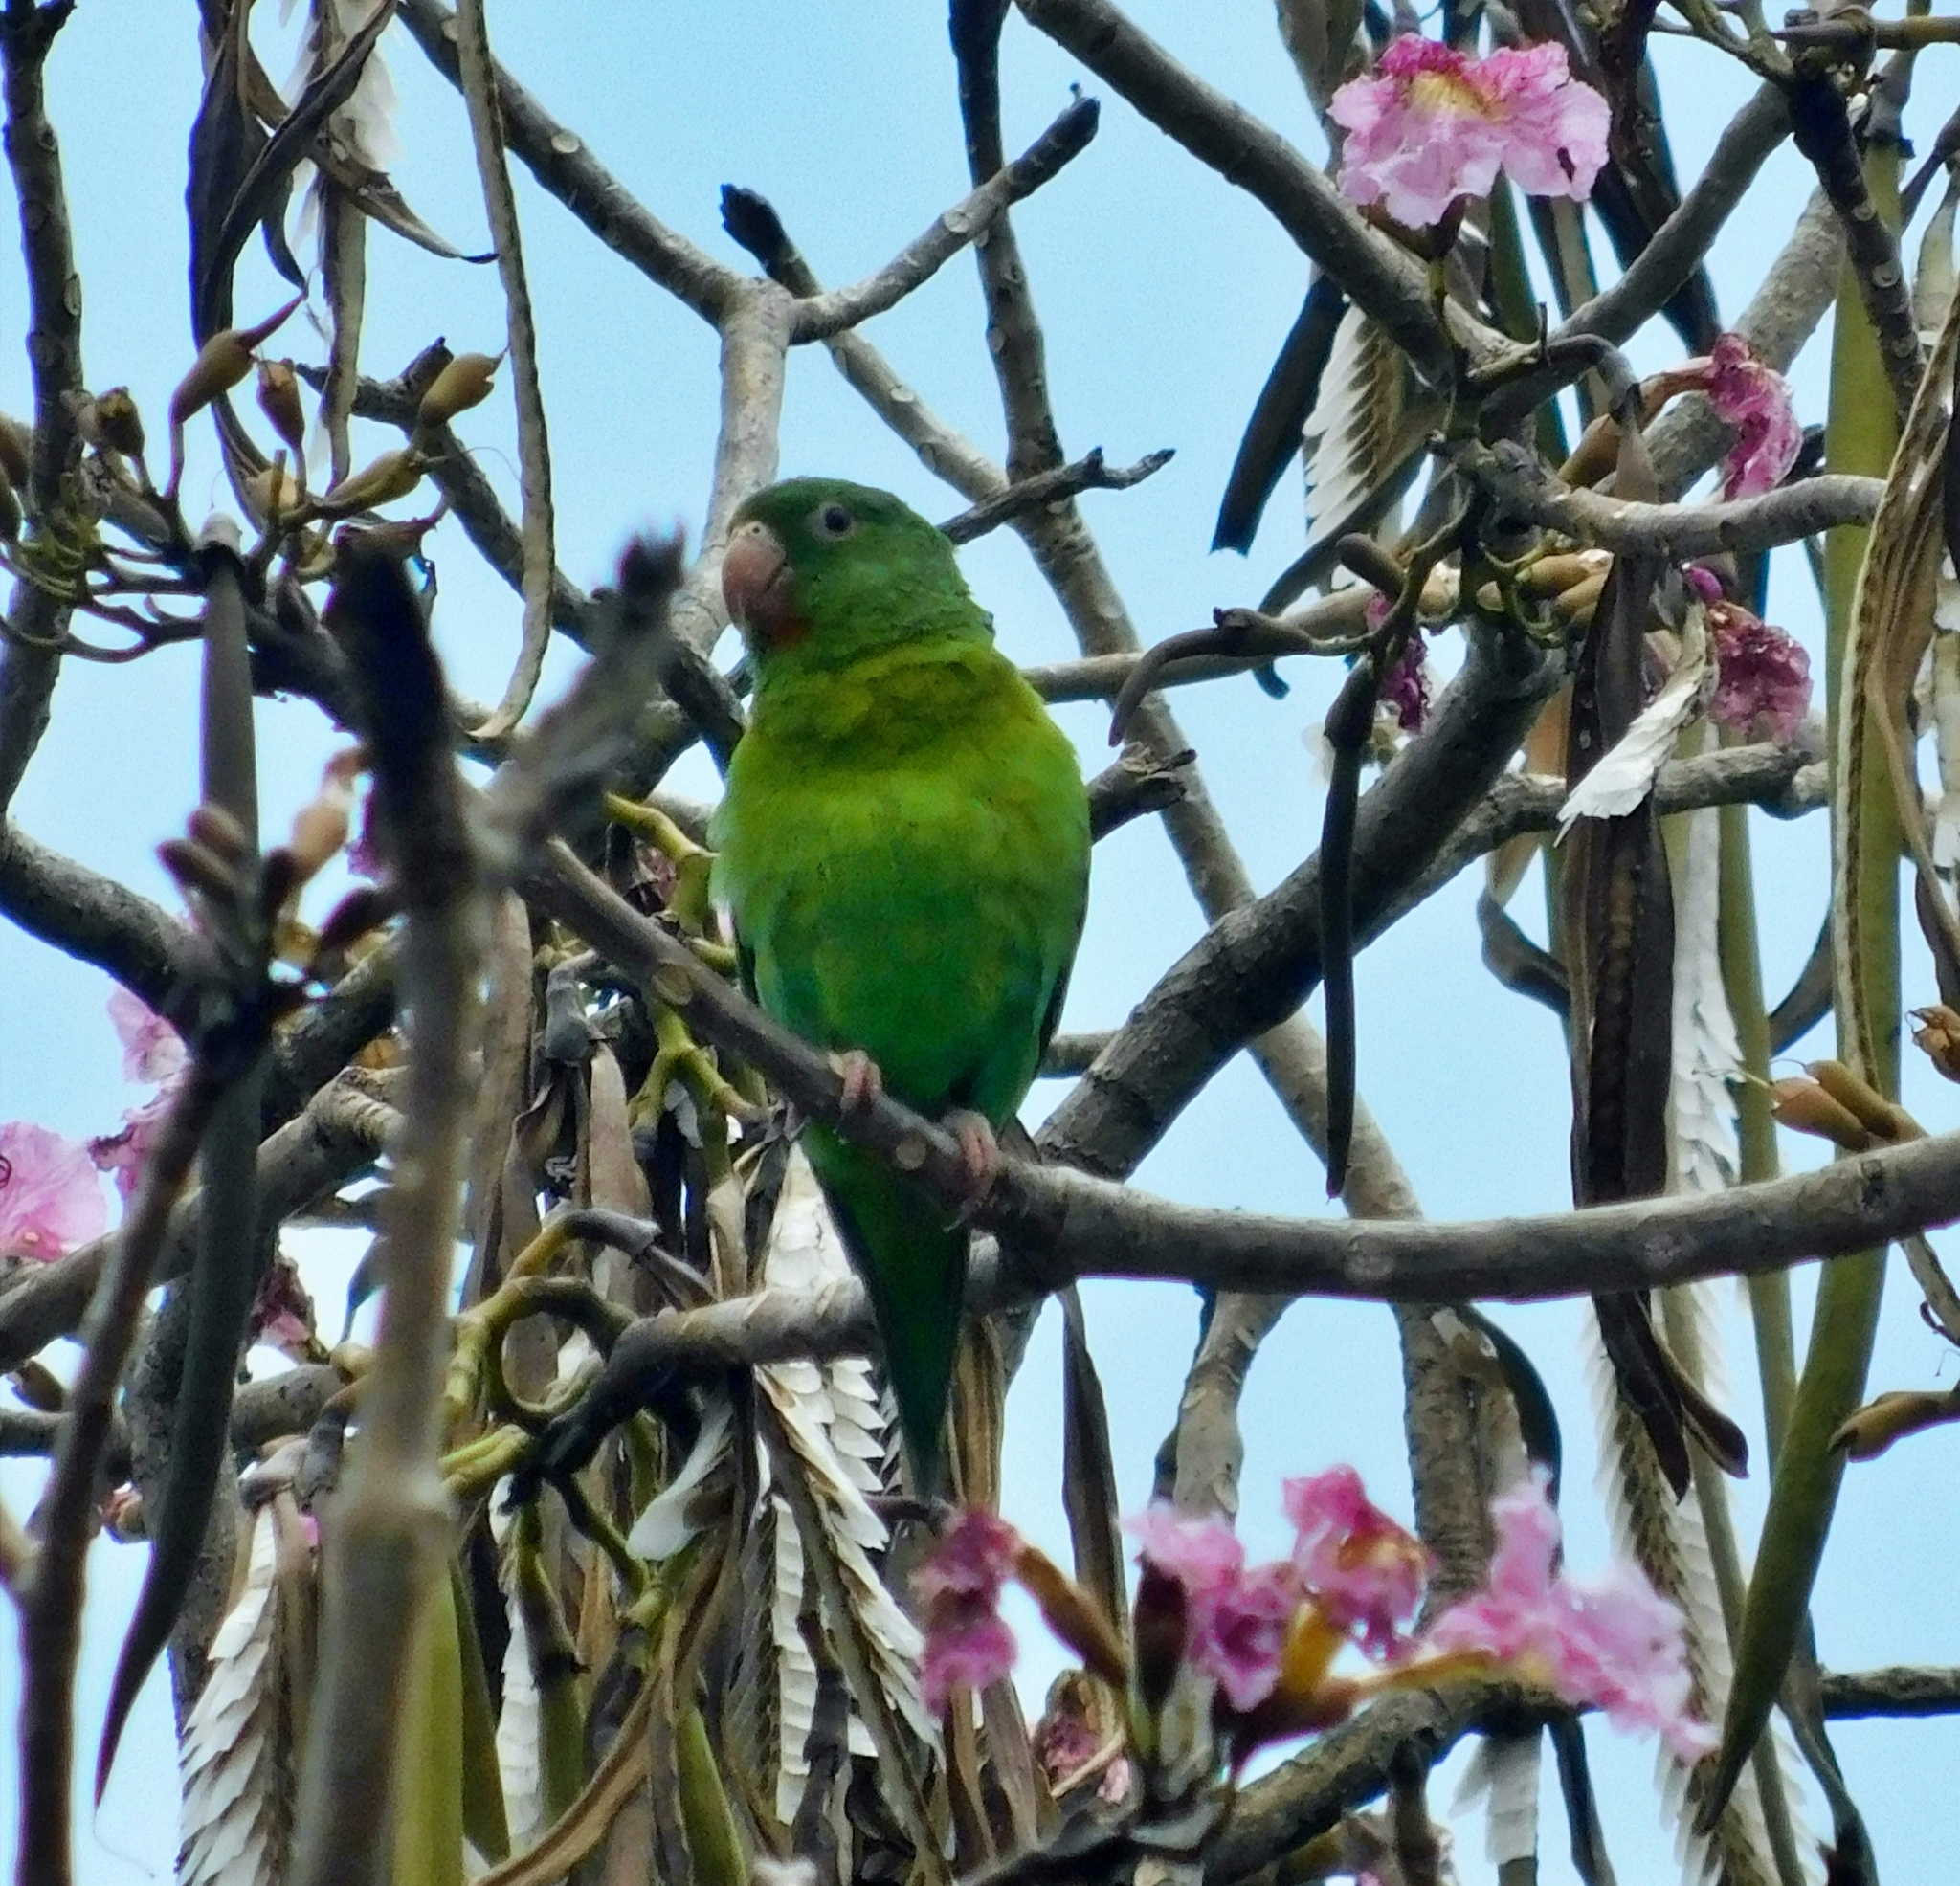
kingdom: Animalia
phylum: Chordata
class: Aves
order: Psittaciformes
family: Psittacidae
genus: Brotogeris
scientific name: Brotogeris jugularis
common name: Orange-chinned parakeet
